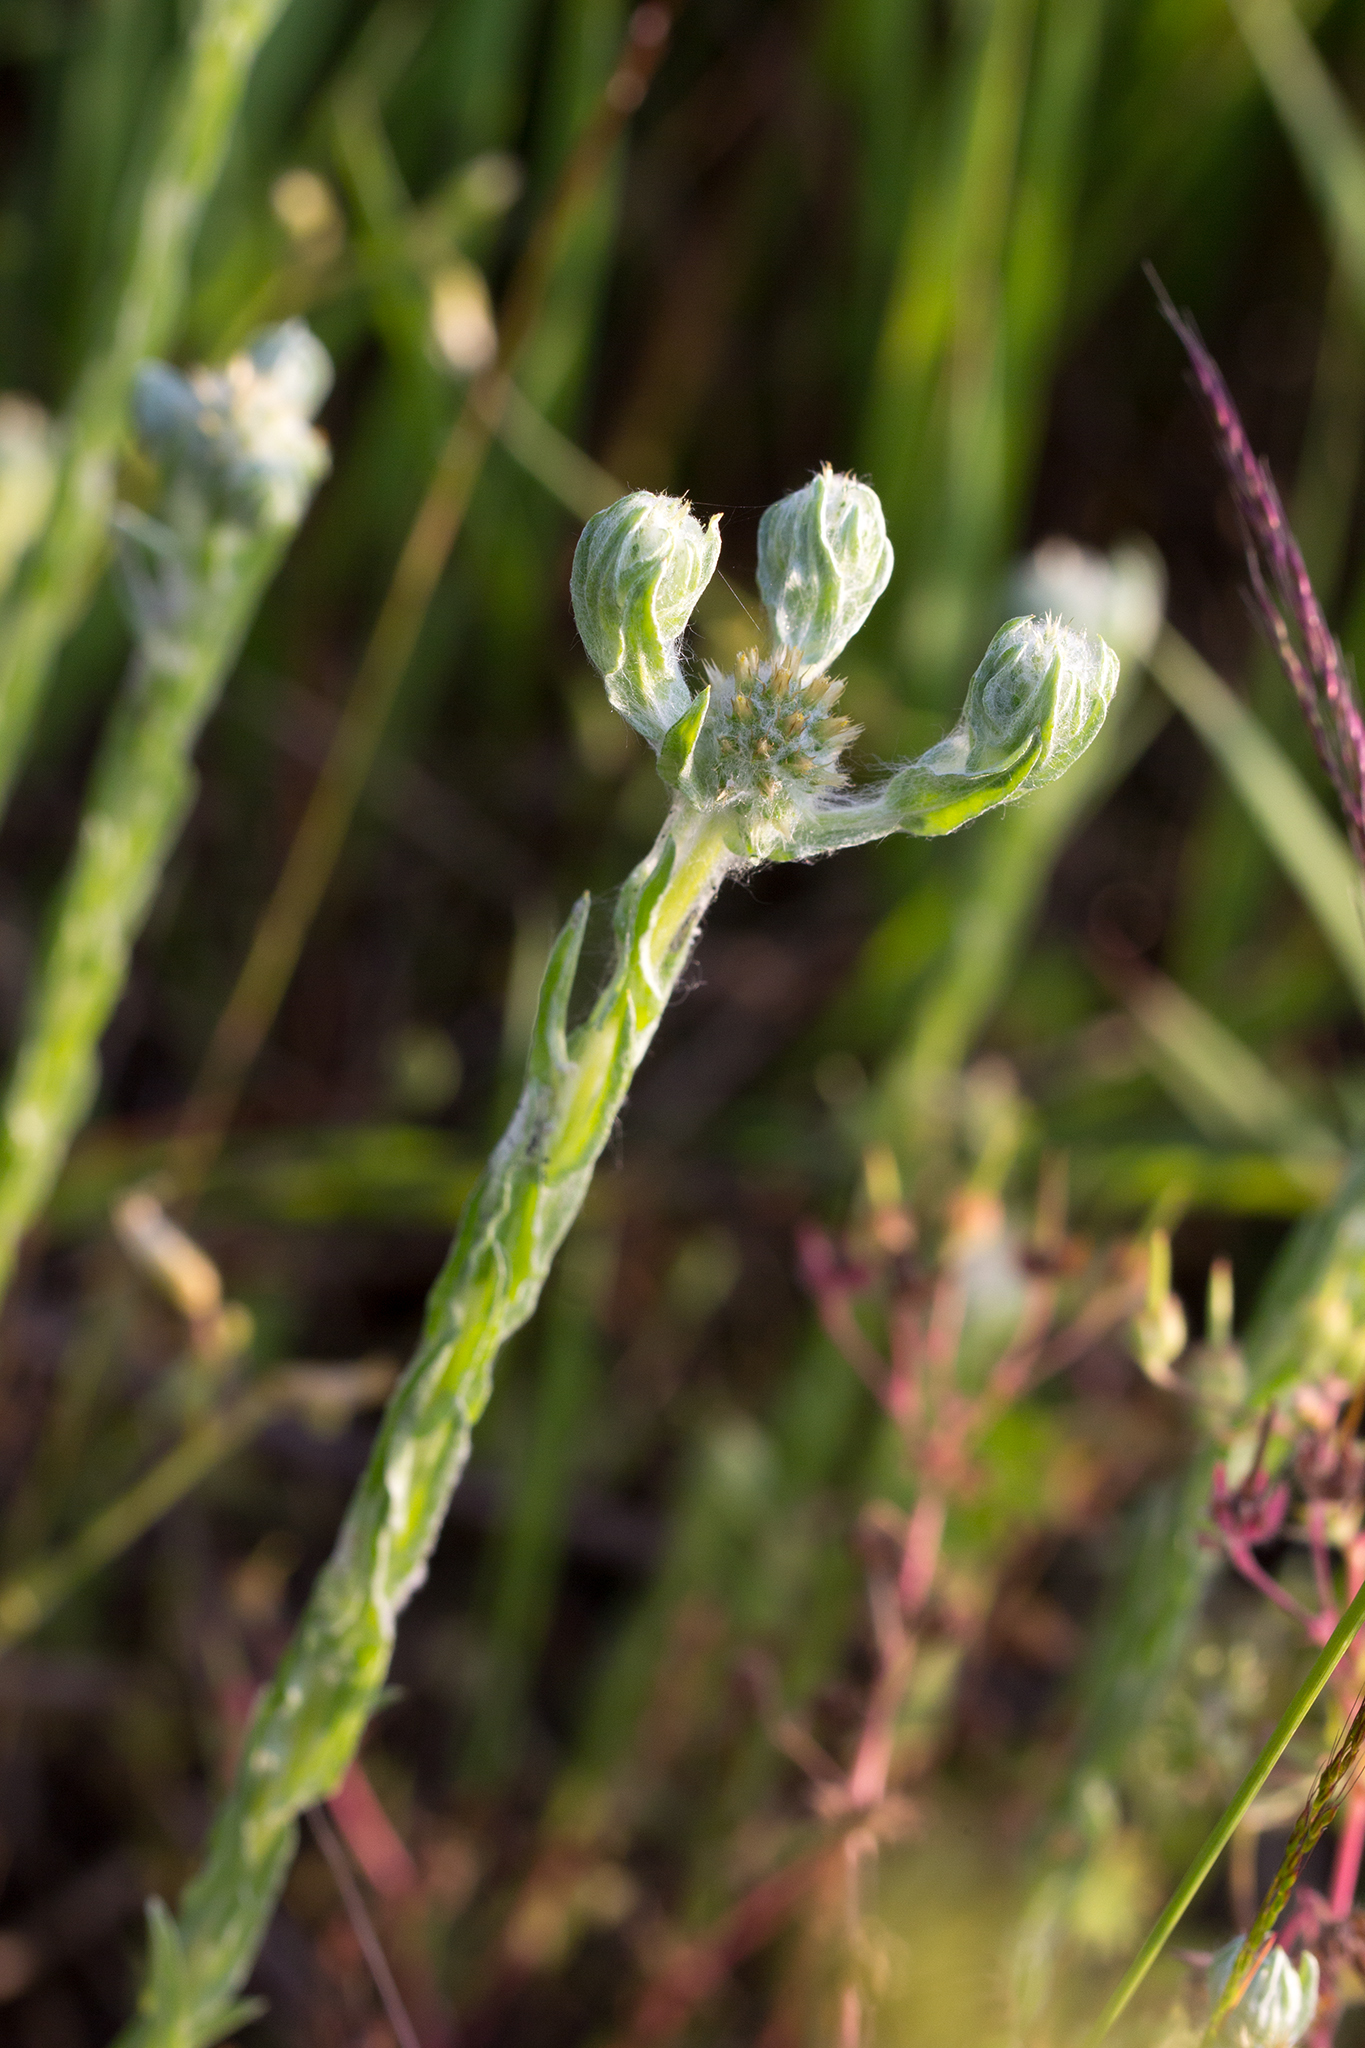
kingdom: Plantae
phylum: Tracheophyta
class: Magnoliopsida
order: Asterales
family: Asteraceae
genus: Filago
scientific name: Filago germanica
